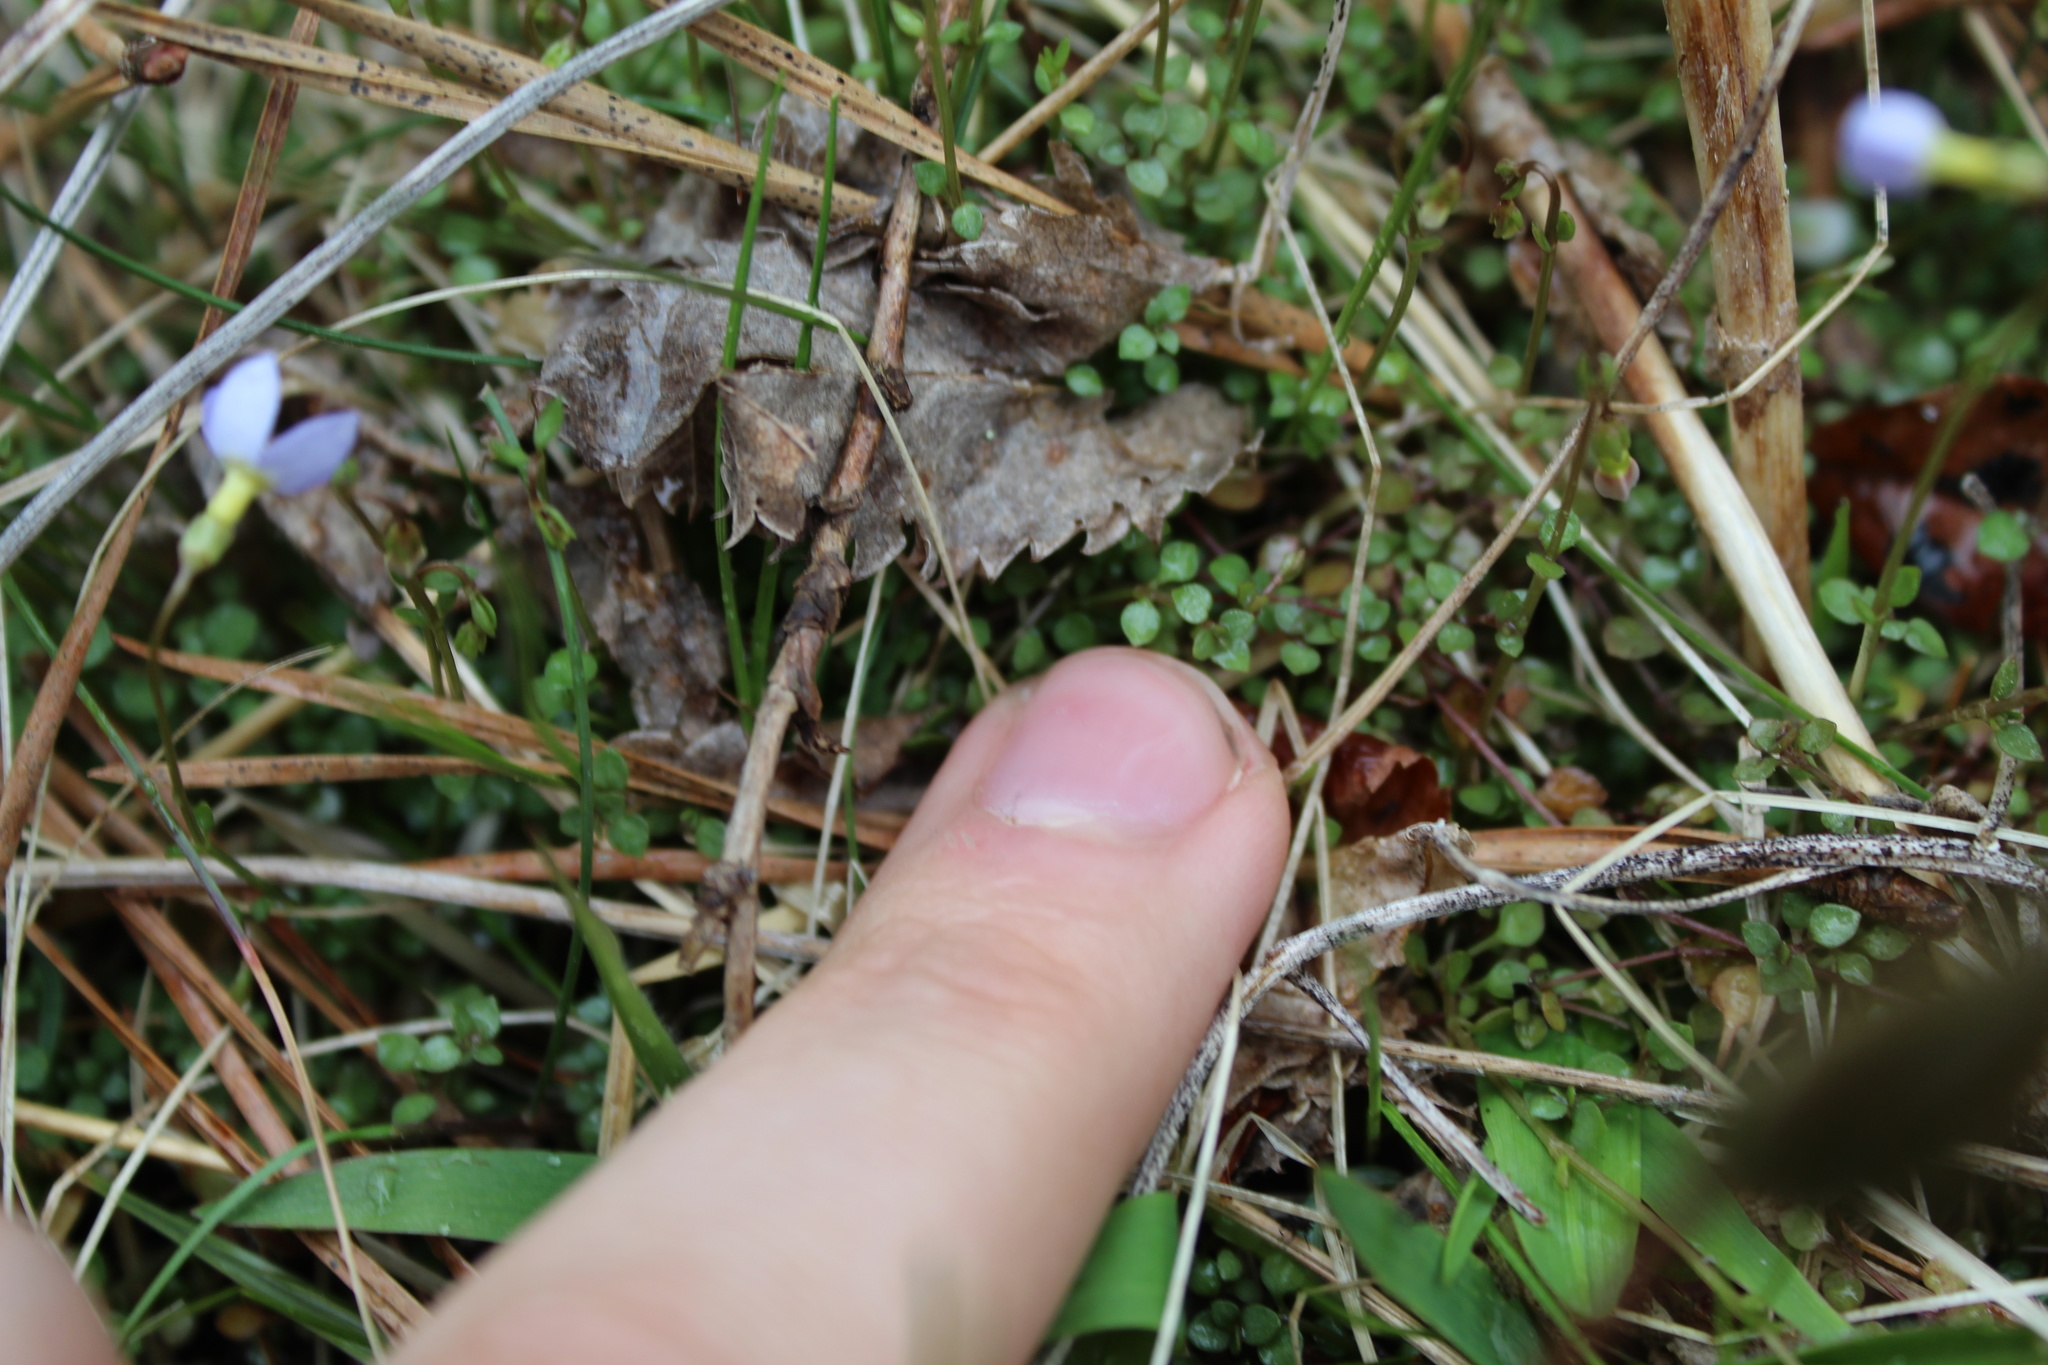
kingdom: Plantae
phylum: Tracheophyta
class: Magnoliopsida
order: Gentianales
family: Rubiaceae
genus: Houstonia
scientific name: Houstonia serpyllifolia
